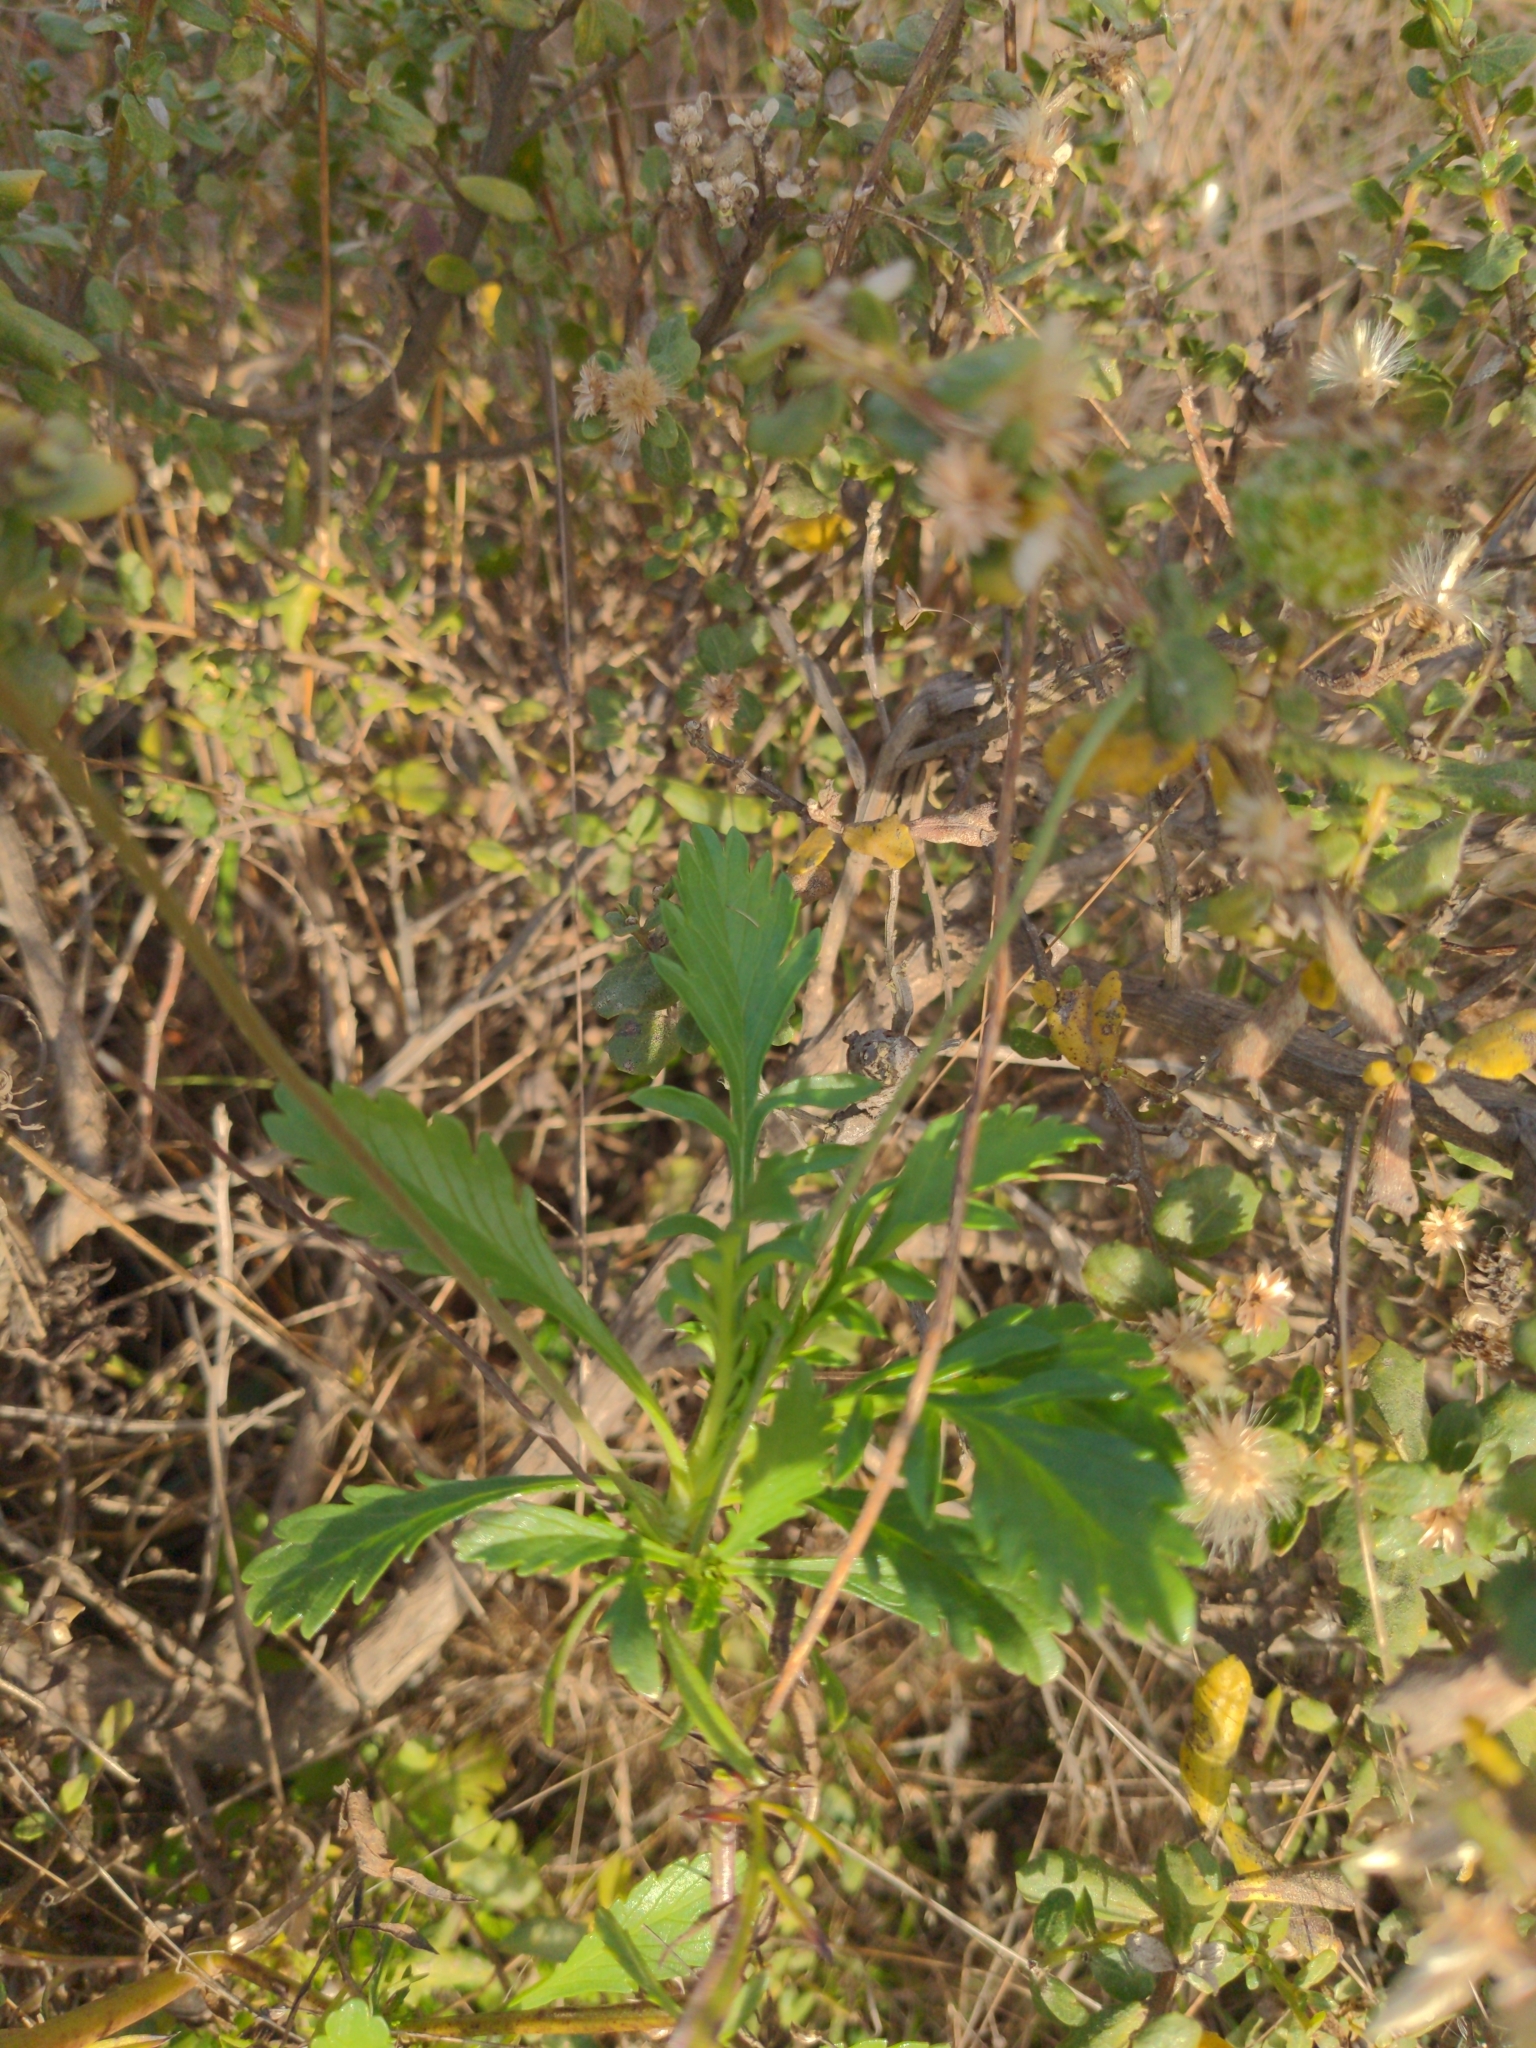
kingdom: Plantae
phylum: Tracheophyta
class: Magnoliopsida
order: Dipsacales
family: Caprifoliaceae
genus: Sixalix
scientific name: Sixalix atropurpurea
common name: Sweet scabious
